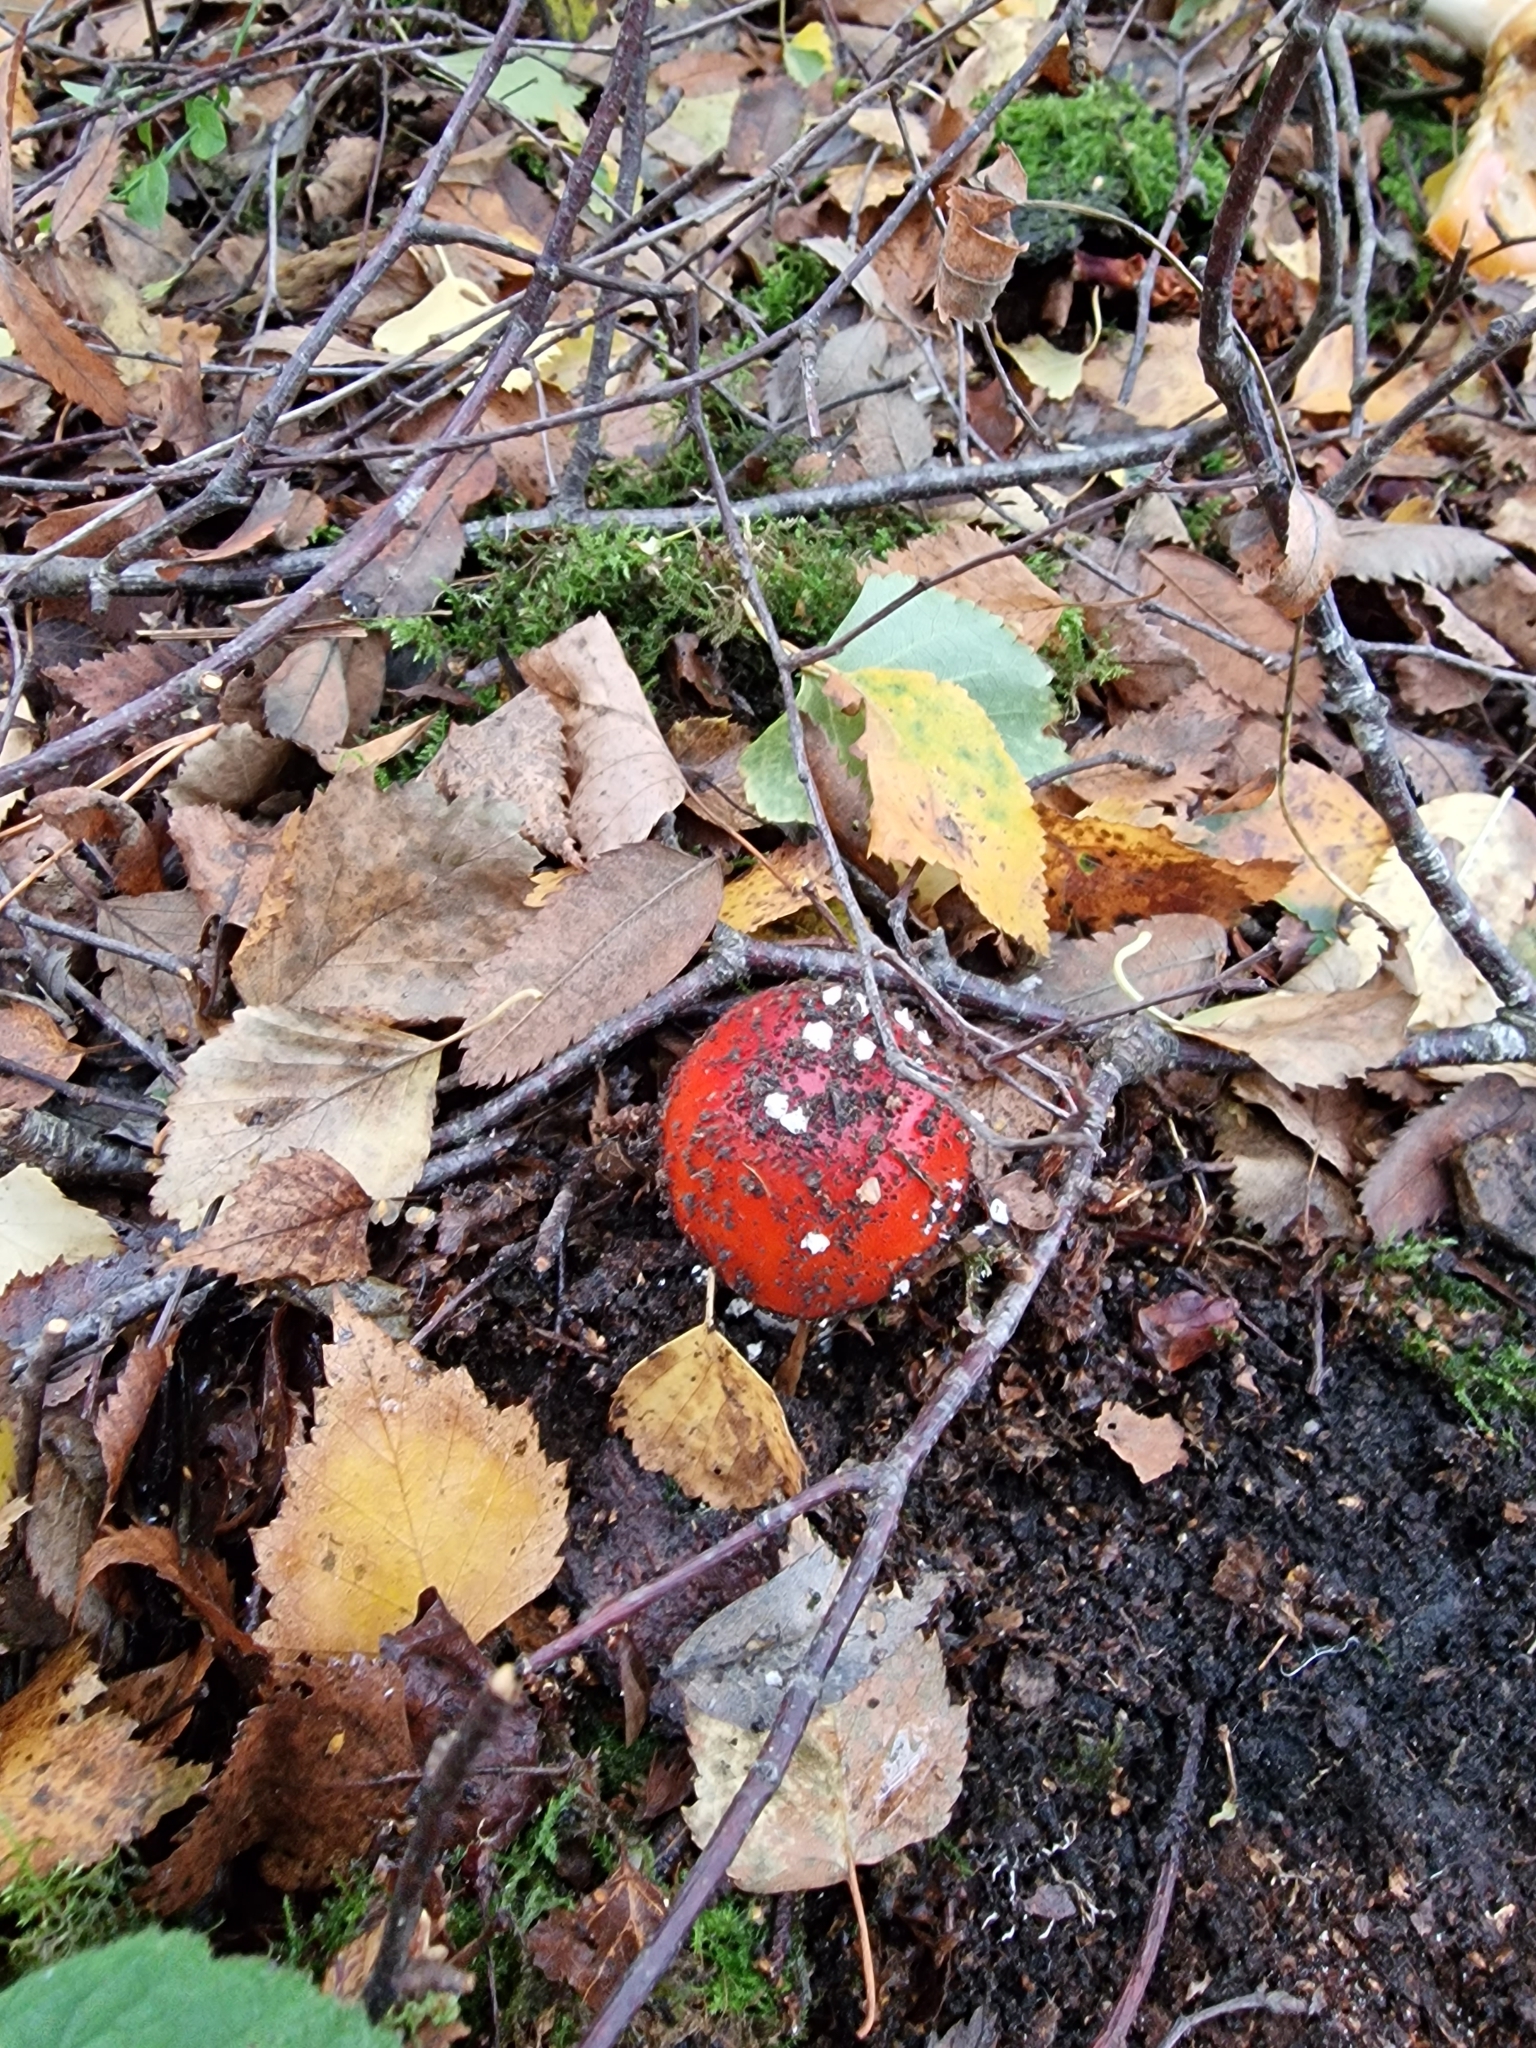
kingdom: Fungi
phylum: Basidiomycota
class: Agaricomycetes
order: Agaricales
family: Amanitaceae
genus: Amanita
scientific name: Amanita muscaria
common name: Fly agaric
